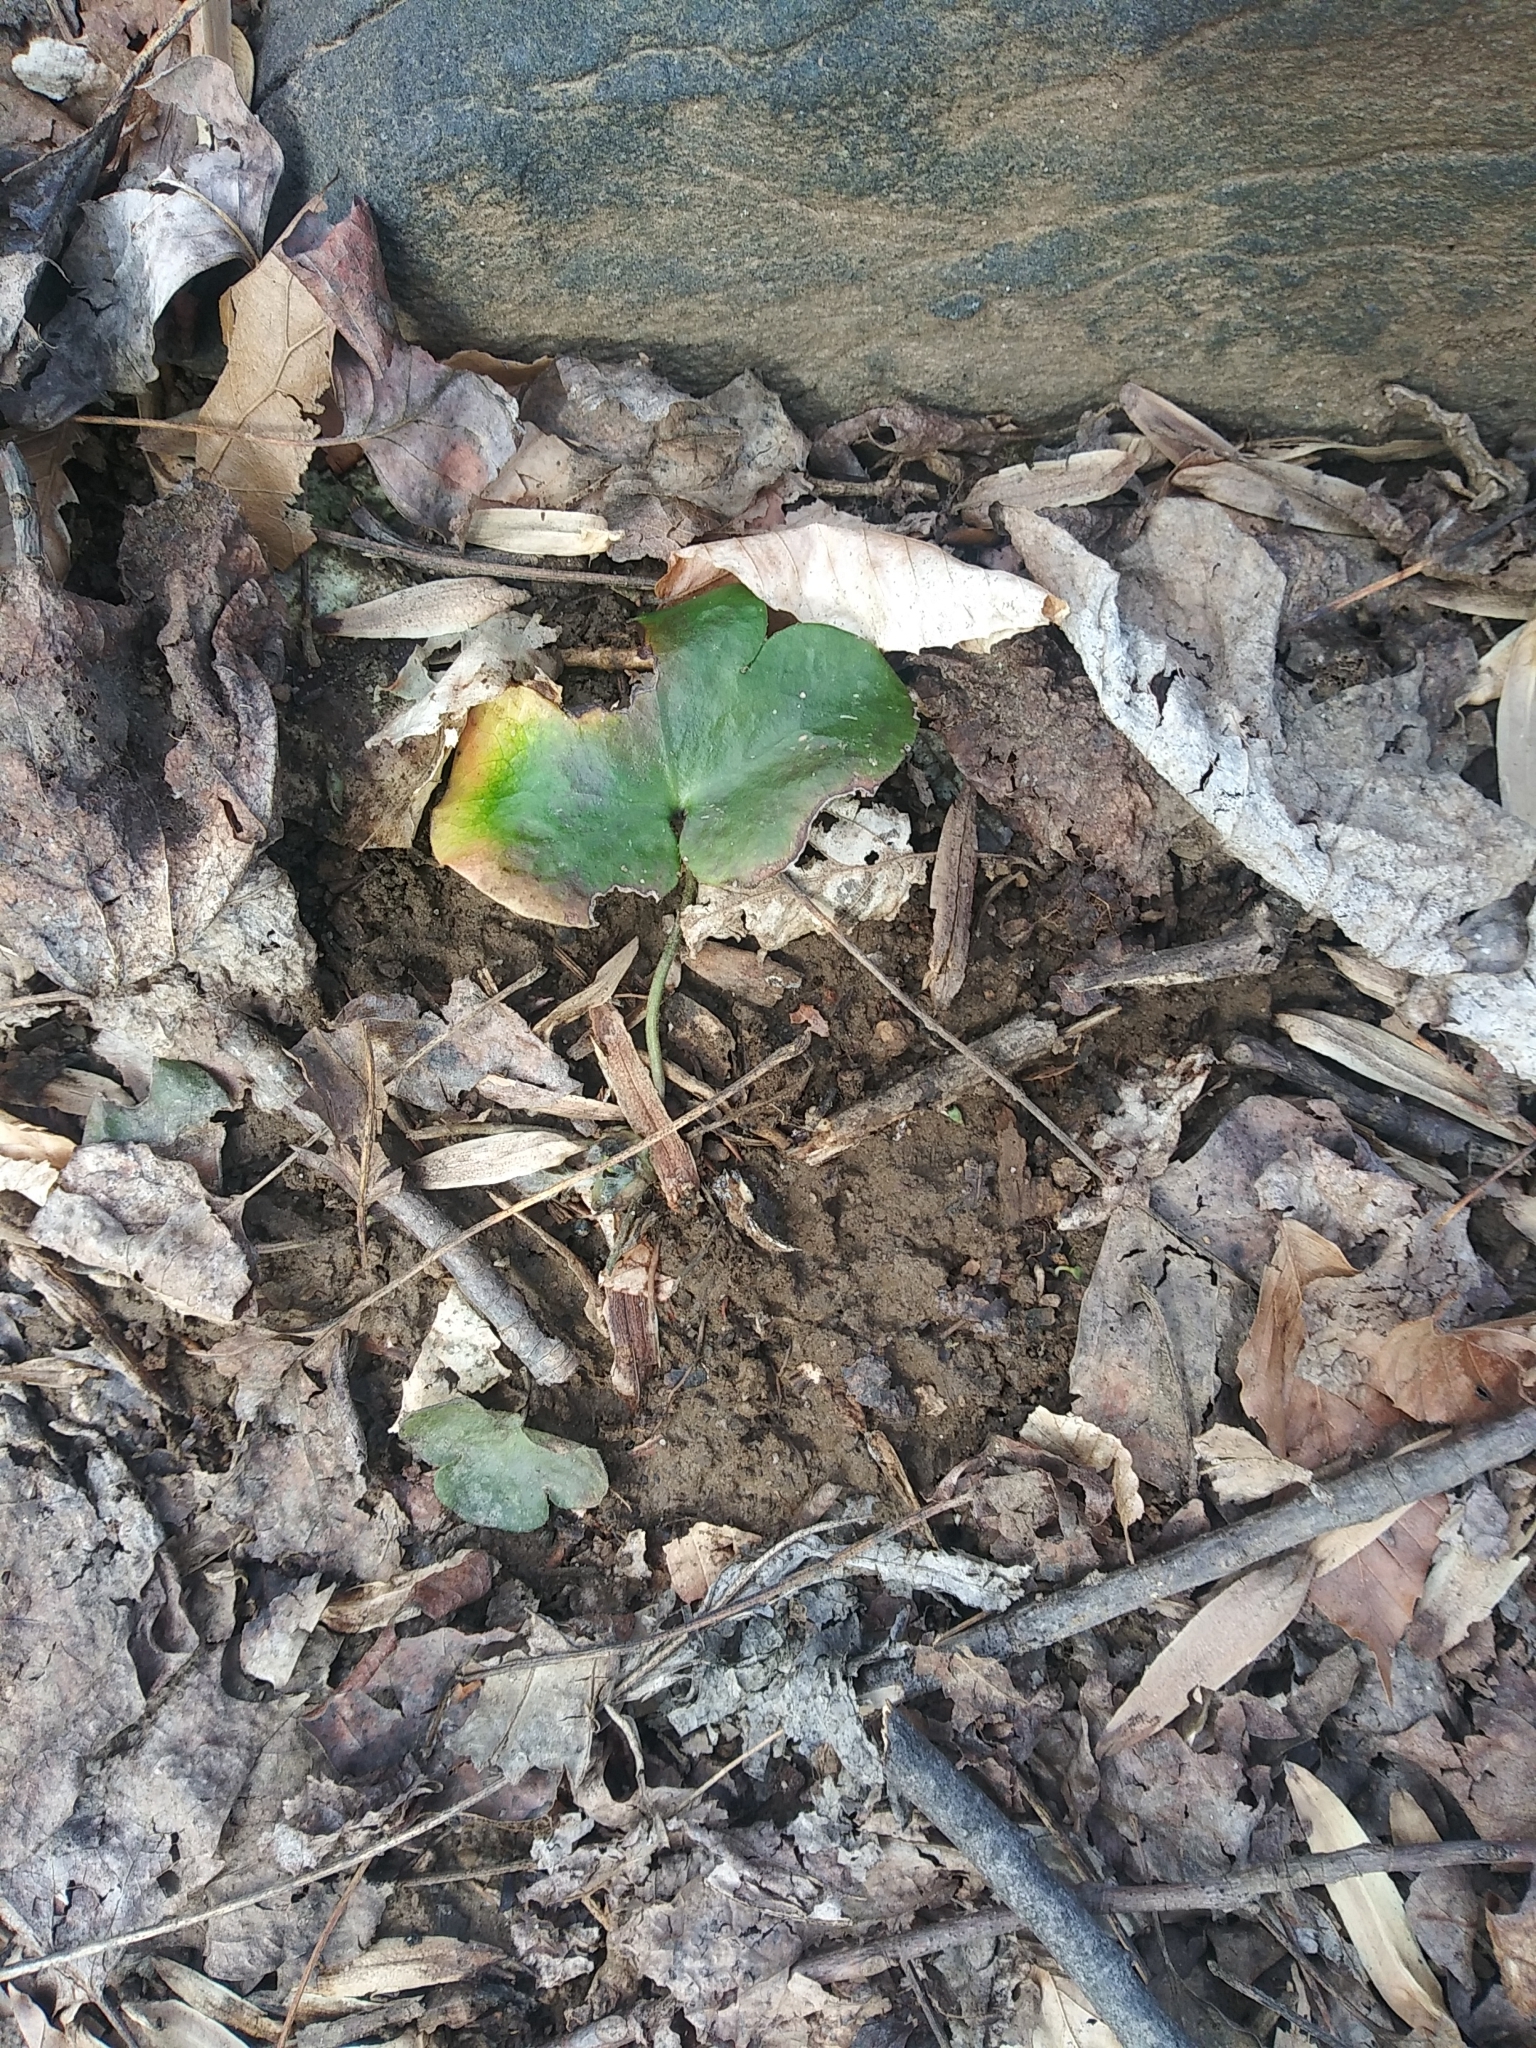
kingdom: Plantae
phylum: Tracheophyta
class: Magnoliopsida
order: Ranunculales
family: Ranunculaceae
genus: Hepatica
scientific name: Hepatica americana
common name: American hepatica
